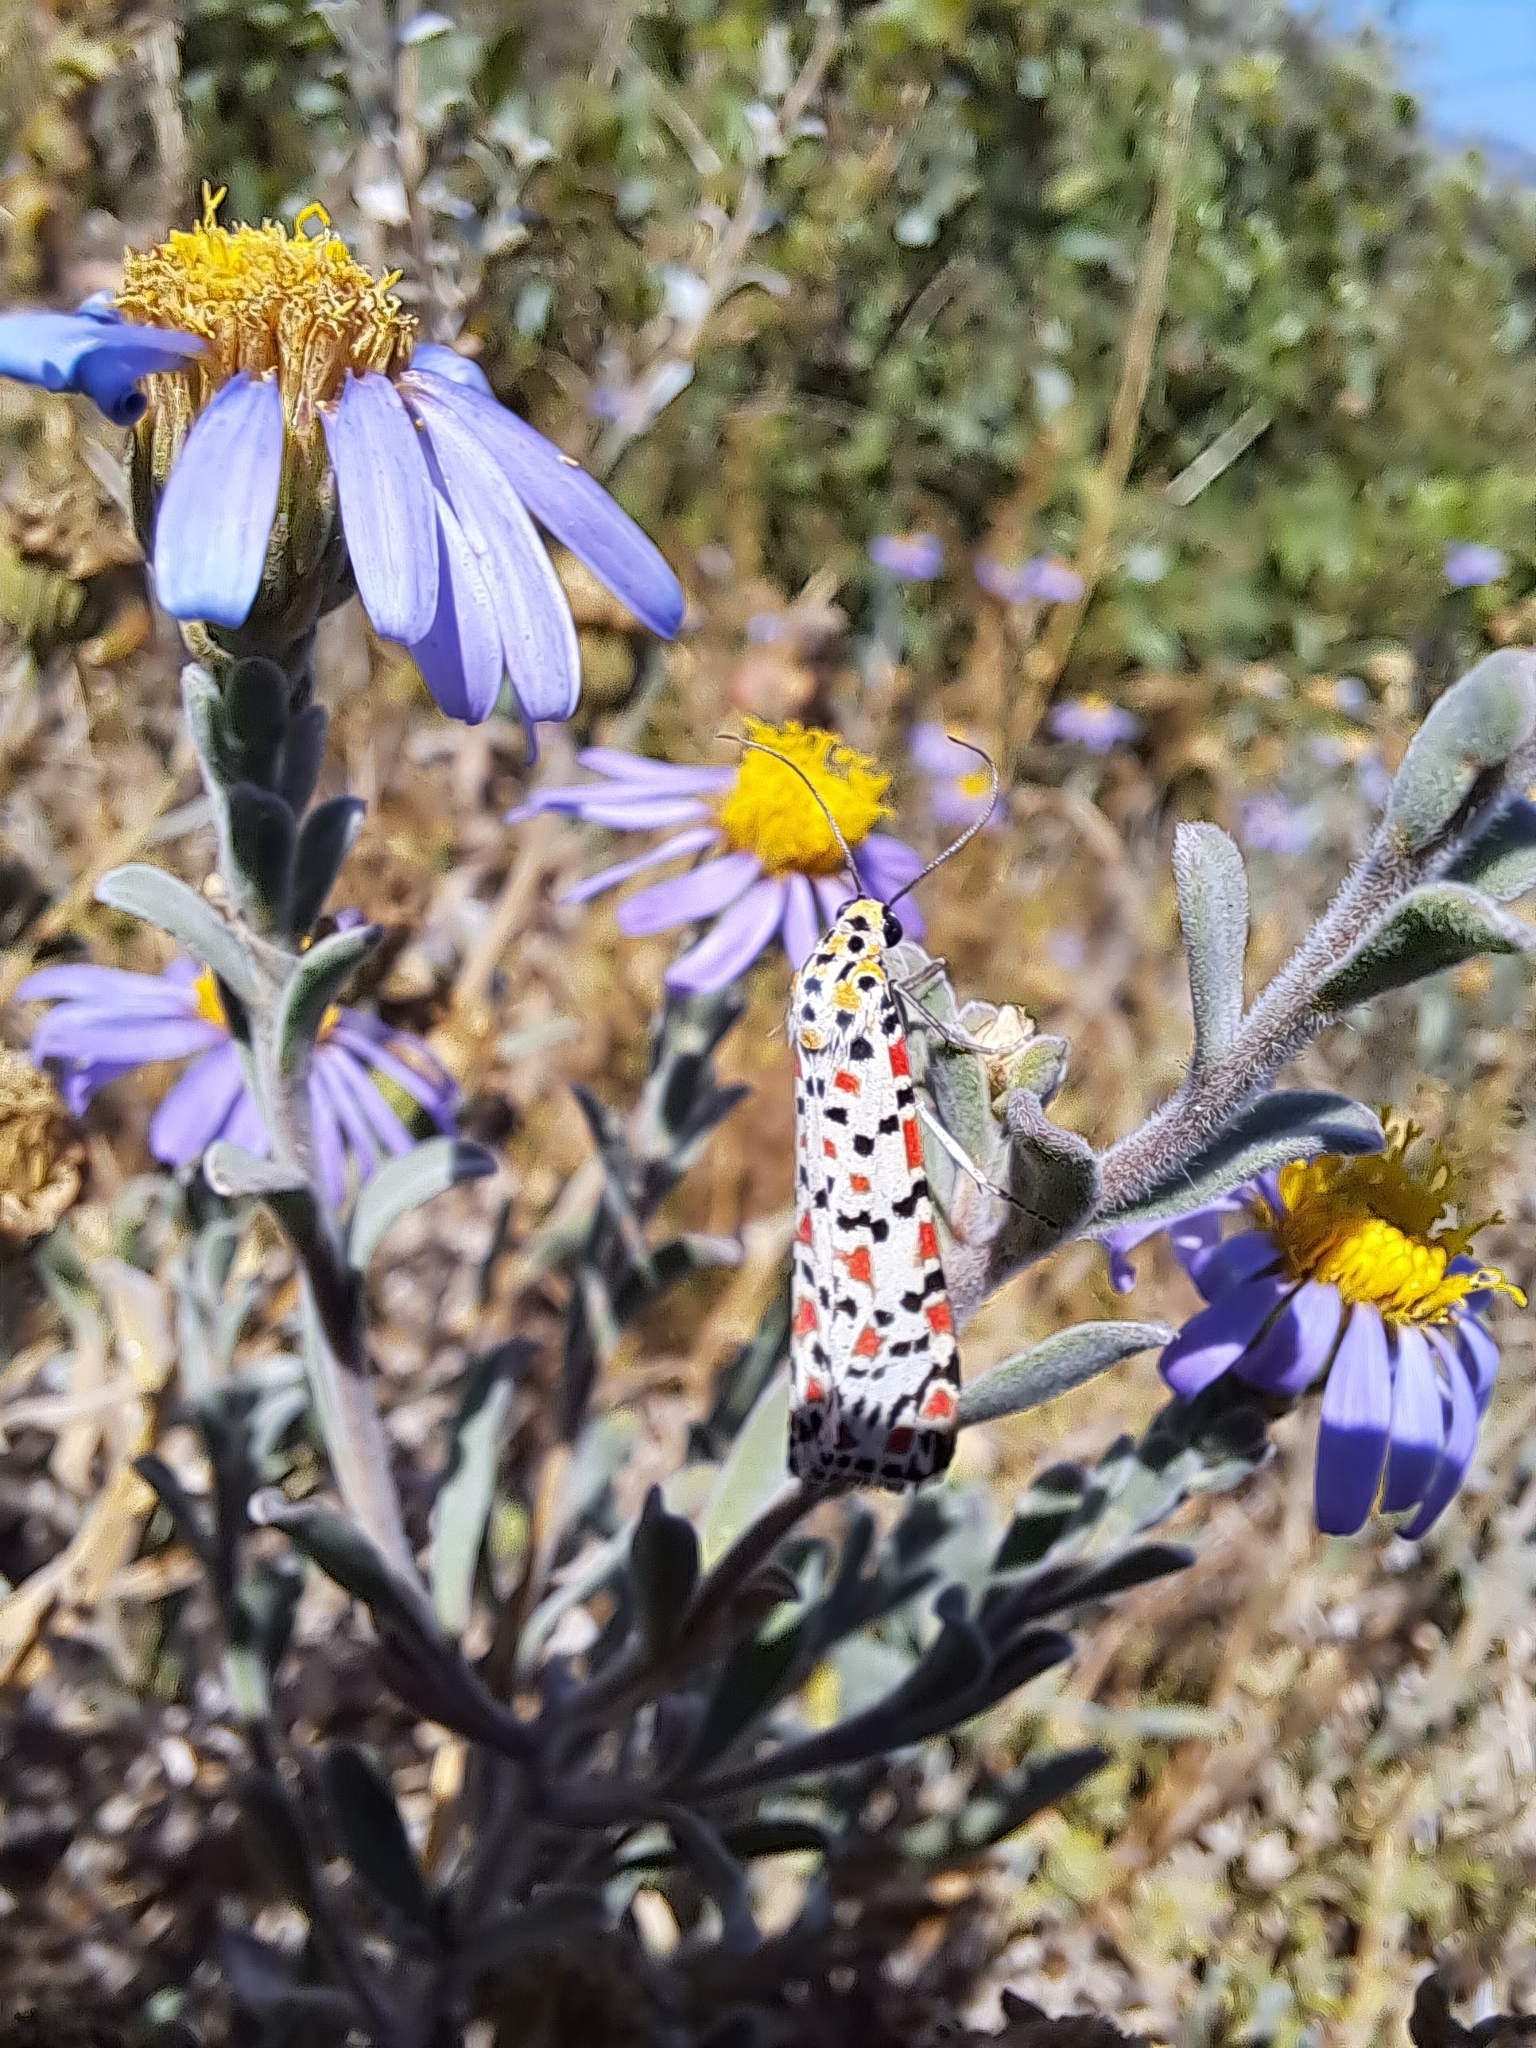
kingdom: Animalia
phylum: Arthropoda
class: Insecta
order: Lepidoptera
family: Erebidae
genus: Utetheisa
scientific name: Utetheisa pulchella
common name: Crimson speckled
